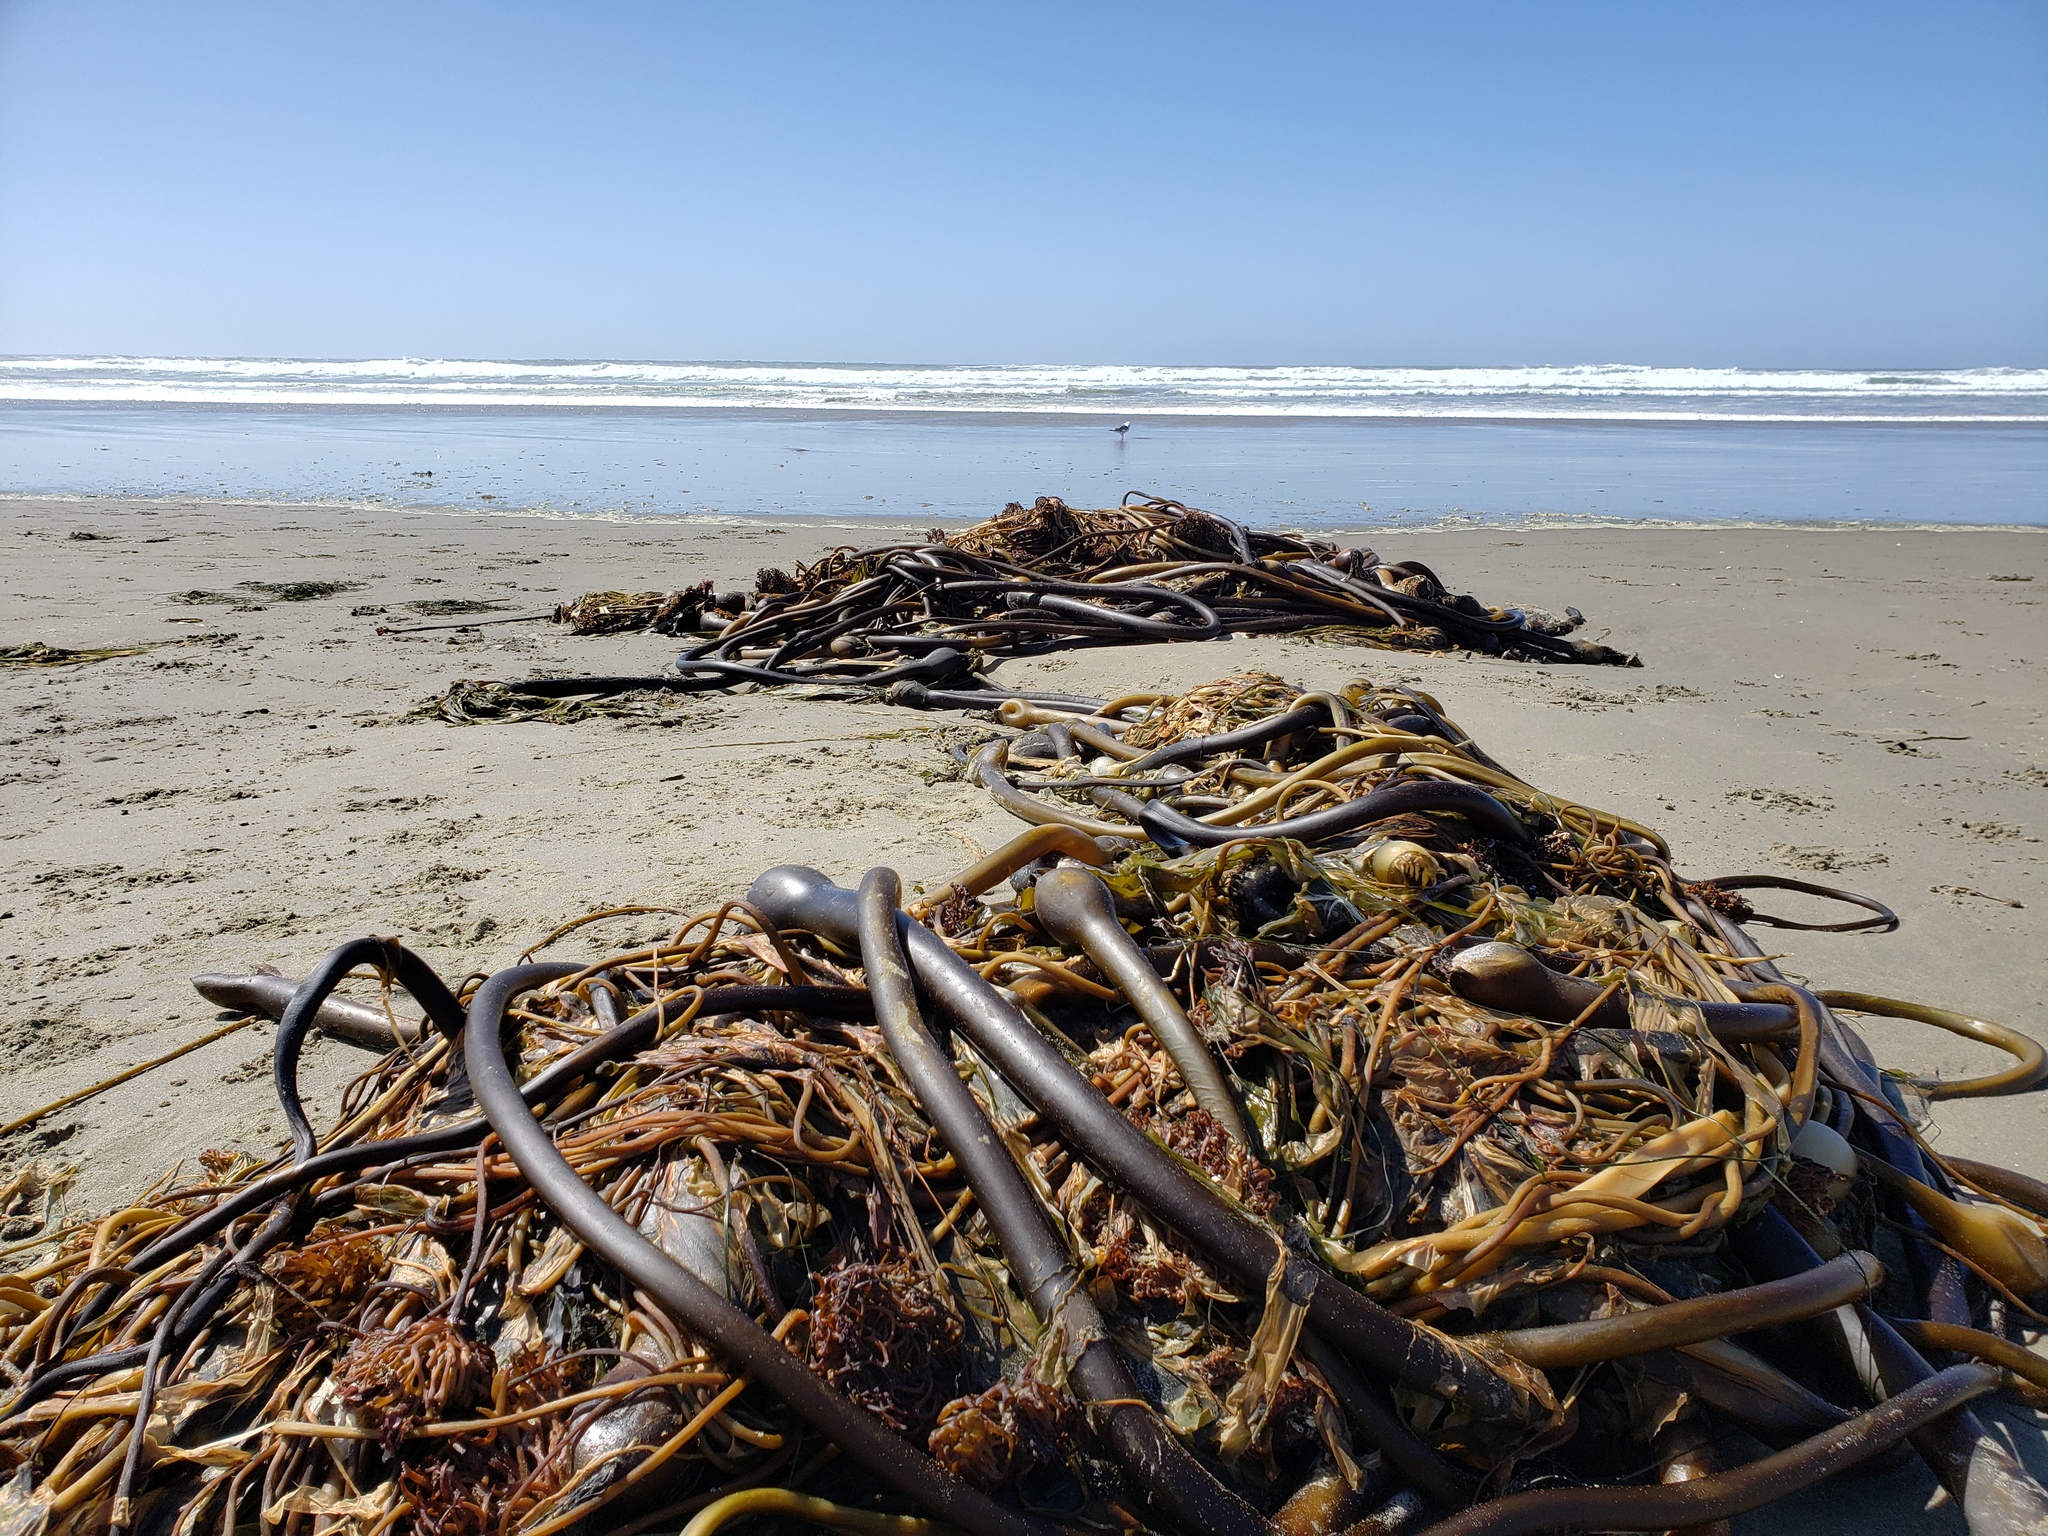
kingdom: Chromista
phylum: Ochrophyta
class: Phaeophyceae
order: Laminariales
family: Laminariaceae
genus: Nereocystis
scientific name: Nereocystis luetkeana
